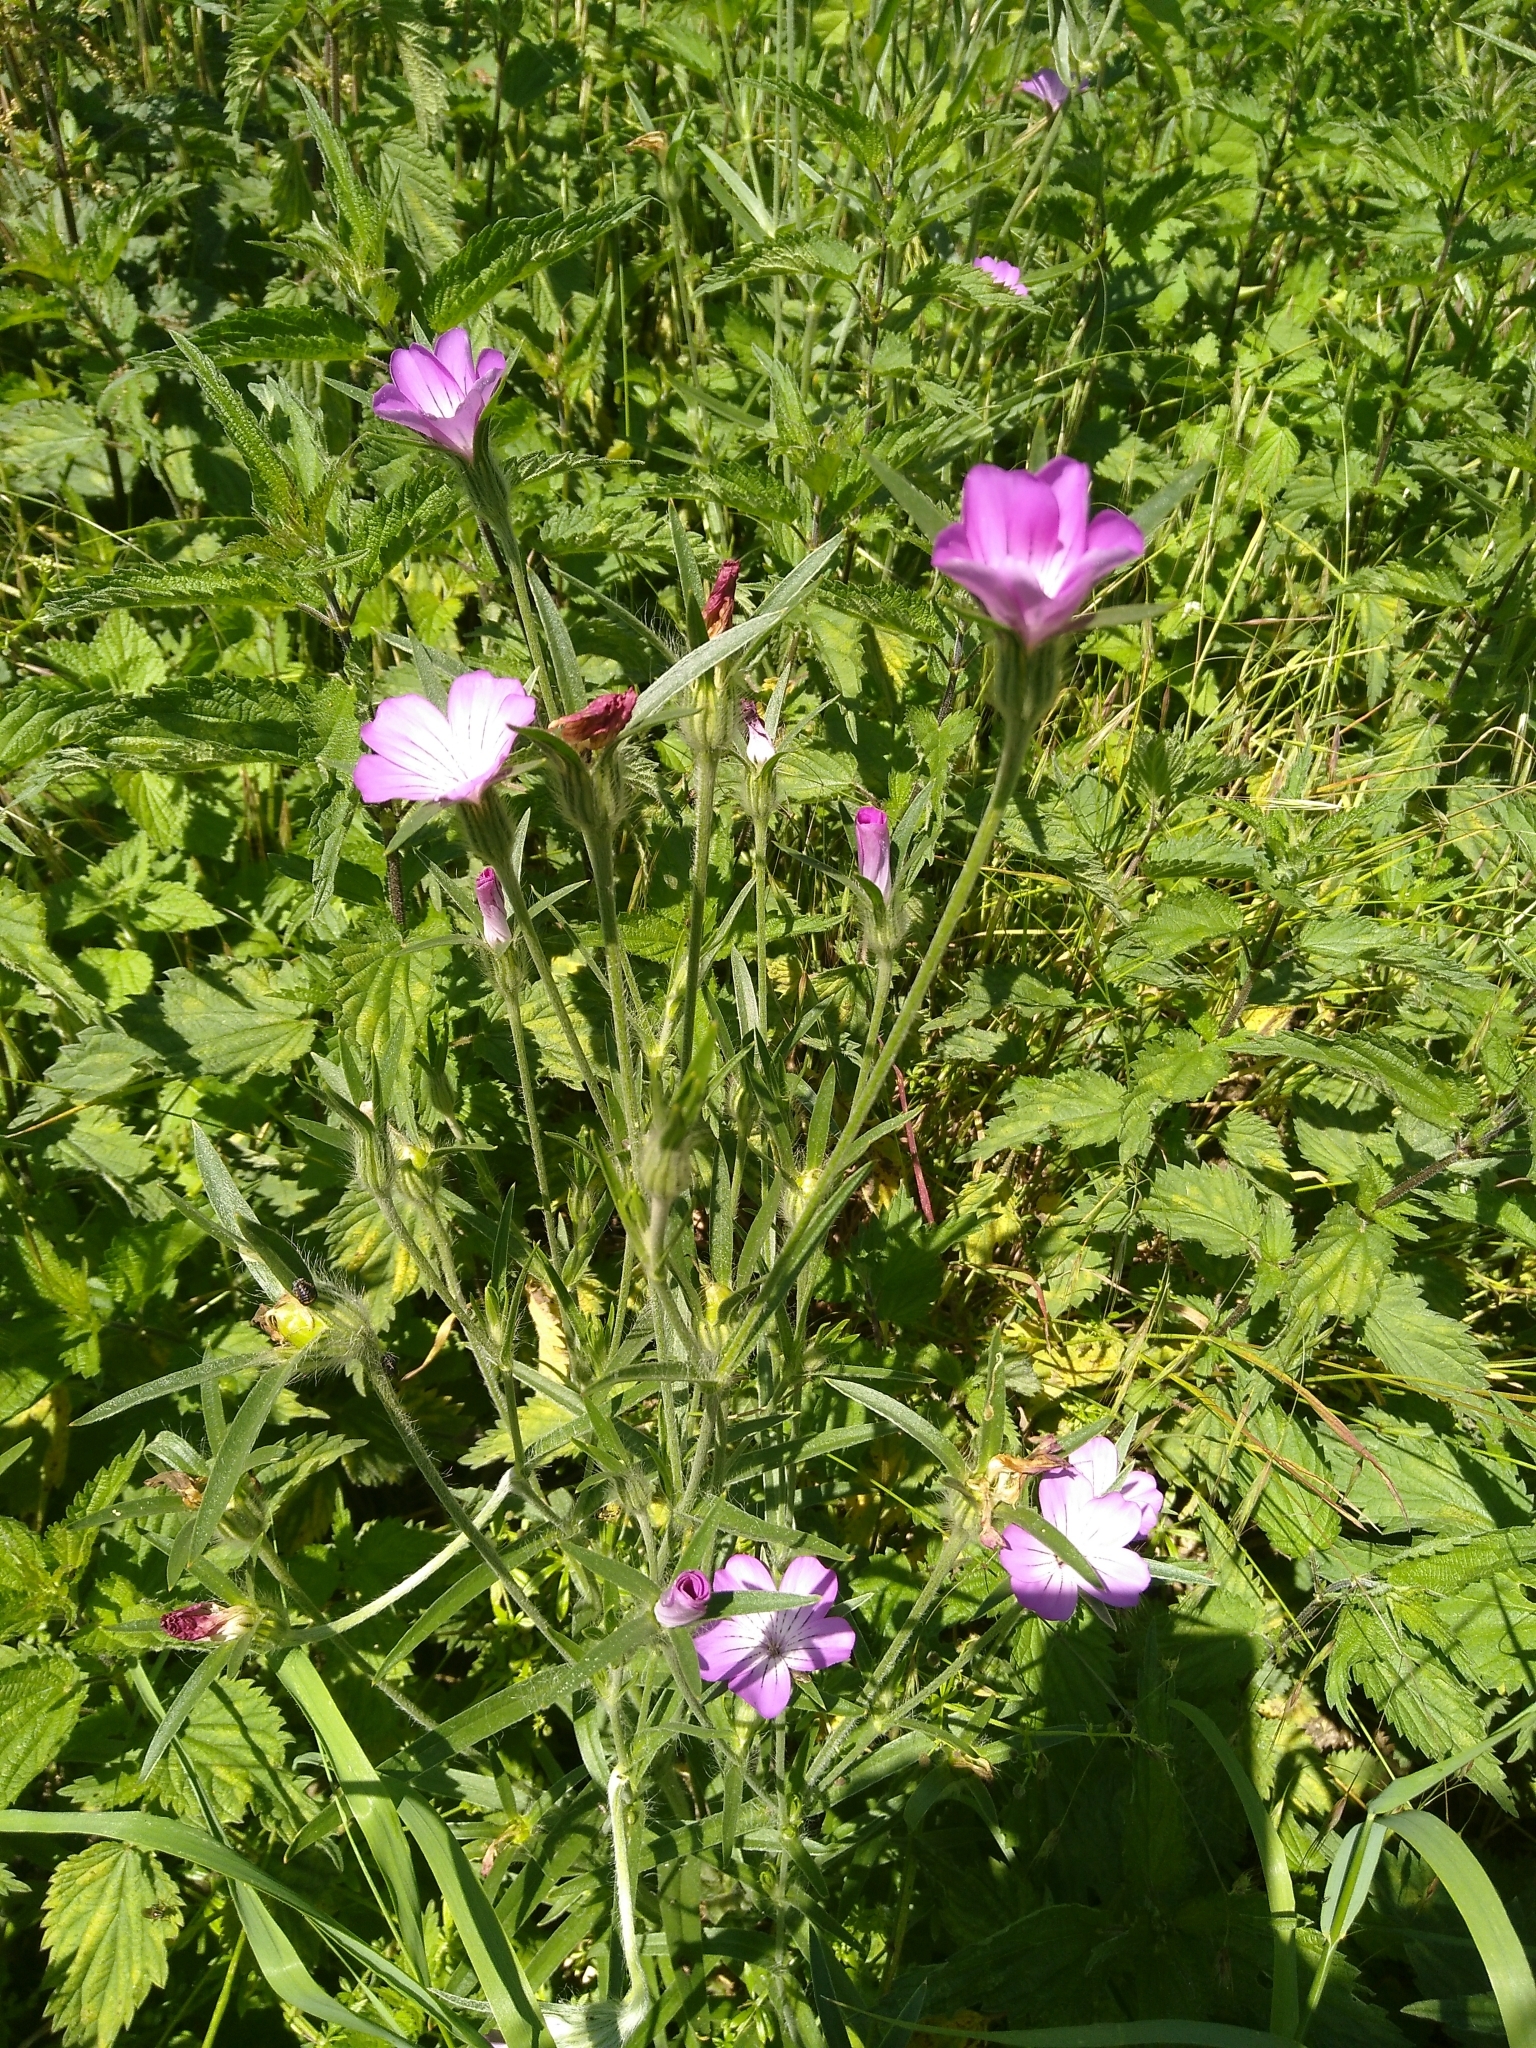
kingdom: Plantae
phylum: Tracheophyta
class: Magnoliopsida
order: Caryophyllales
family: Caryophyllaceae
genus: Agrostemma
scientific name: Agrostemma githago
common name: Common corncockle
